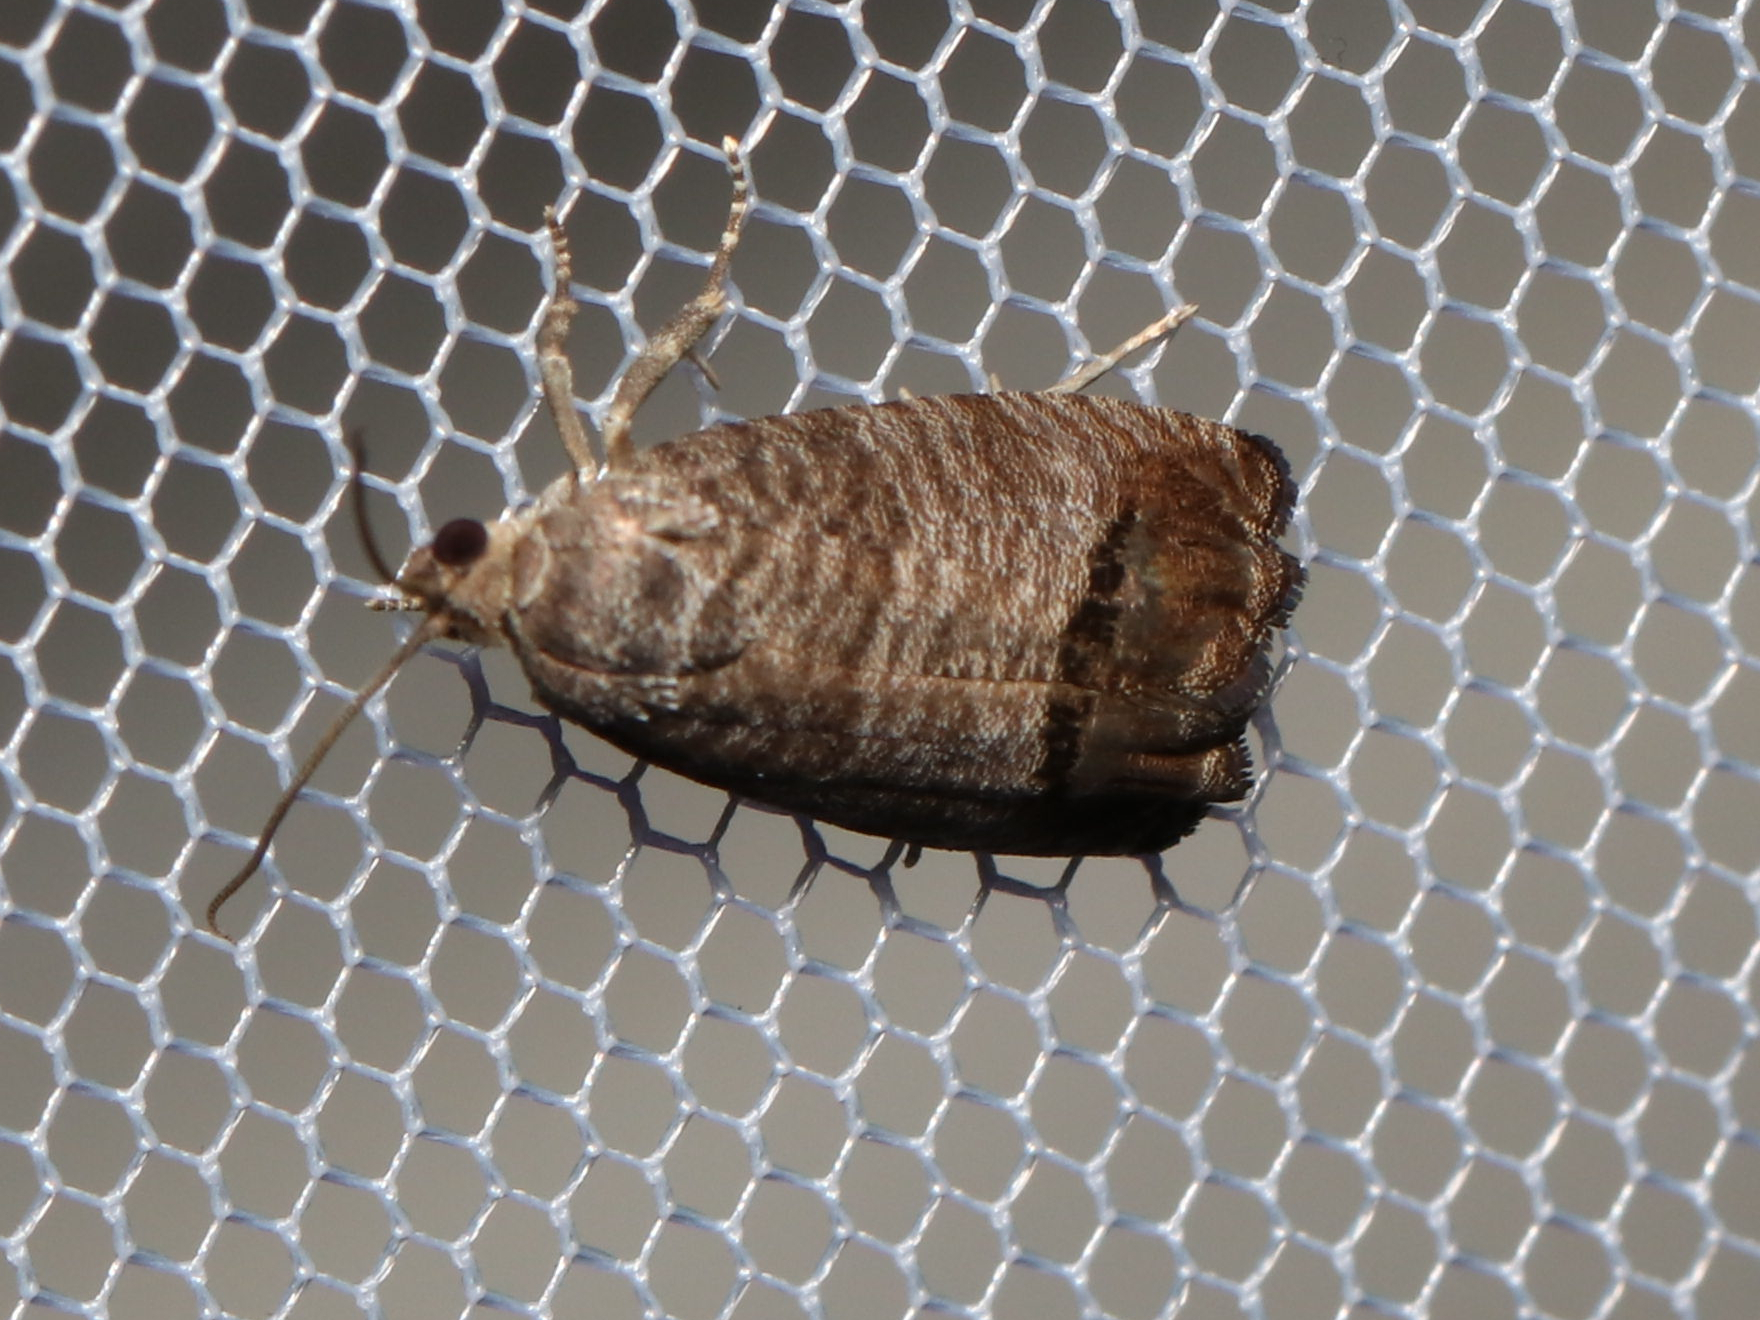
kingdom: Animalia
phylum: Arthropoda
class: Insecta
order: Lepidoptera
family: Tortricidae
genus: Cydia
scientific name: Cydia pomonella
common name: Codling moth
